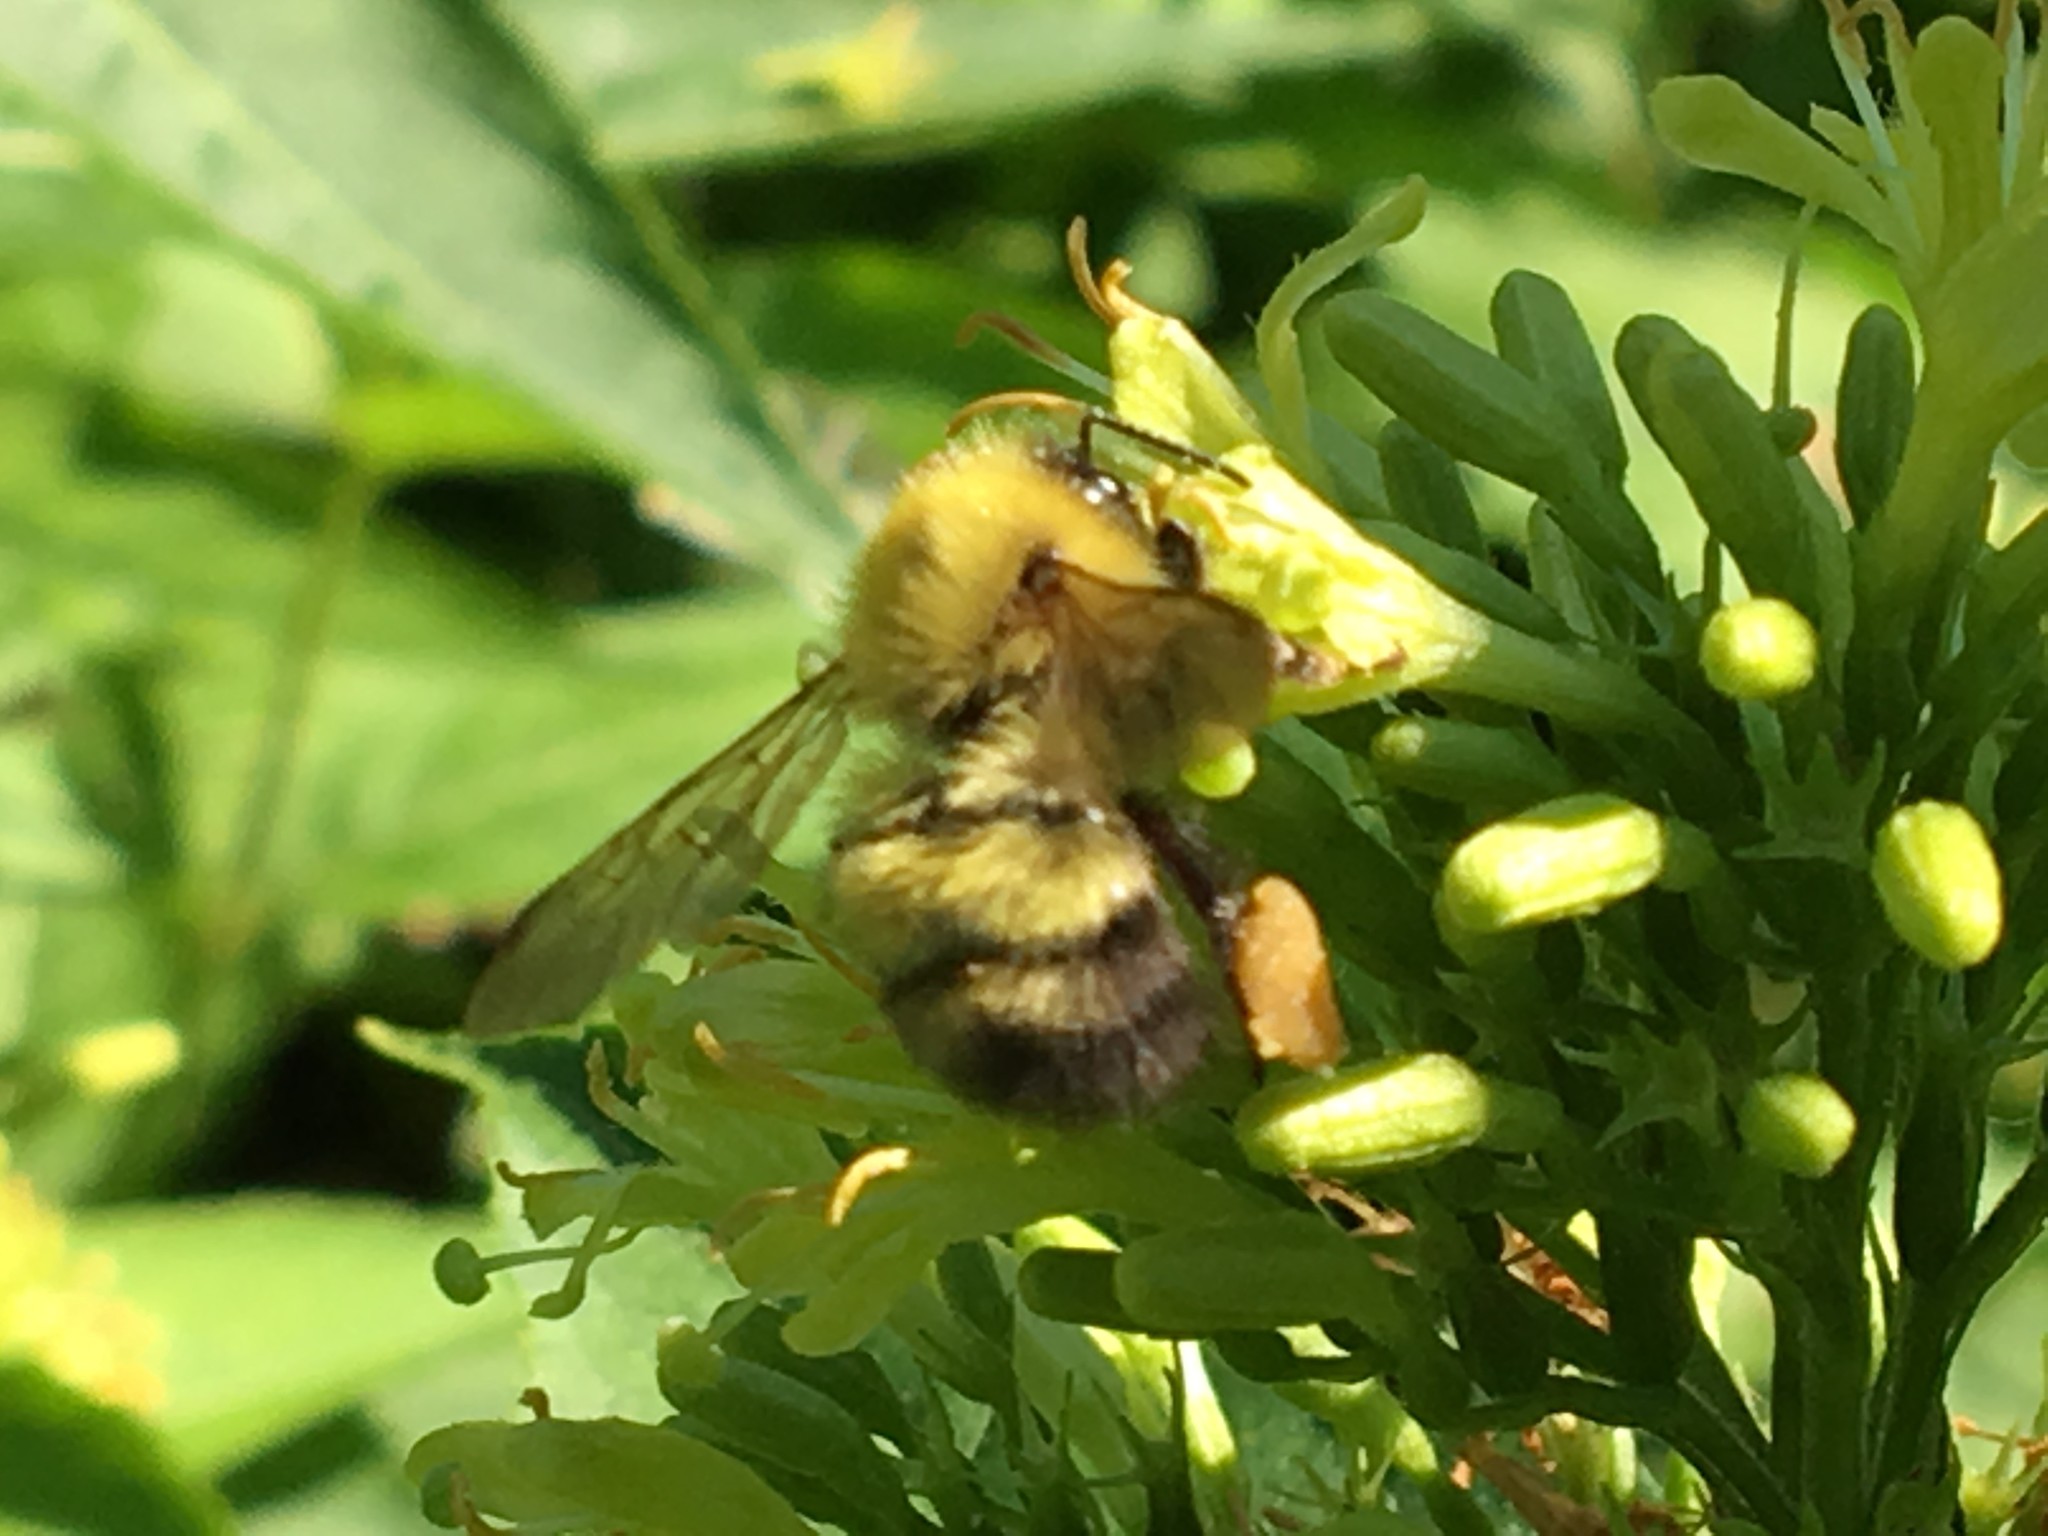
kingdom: Animalia
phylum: Arthropoda
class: Insecta
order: Hymenoptera
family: Apidae
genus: Bombus
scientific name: Bombus perplexus
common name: Confusing bumble bee
